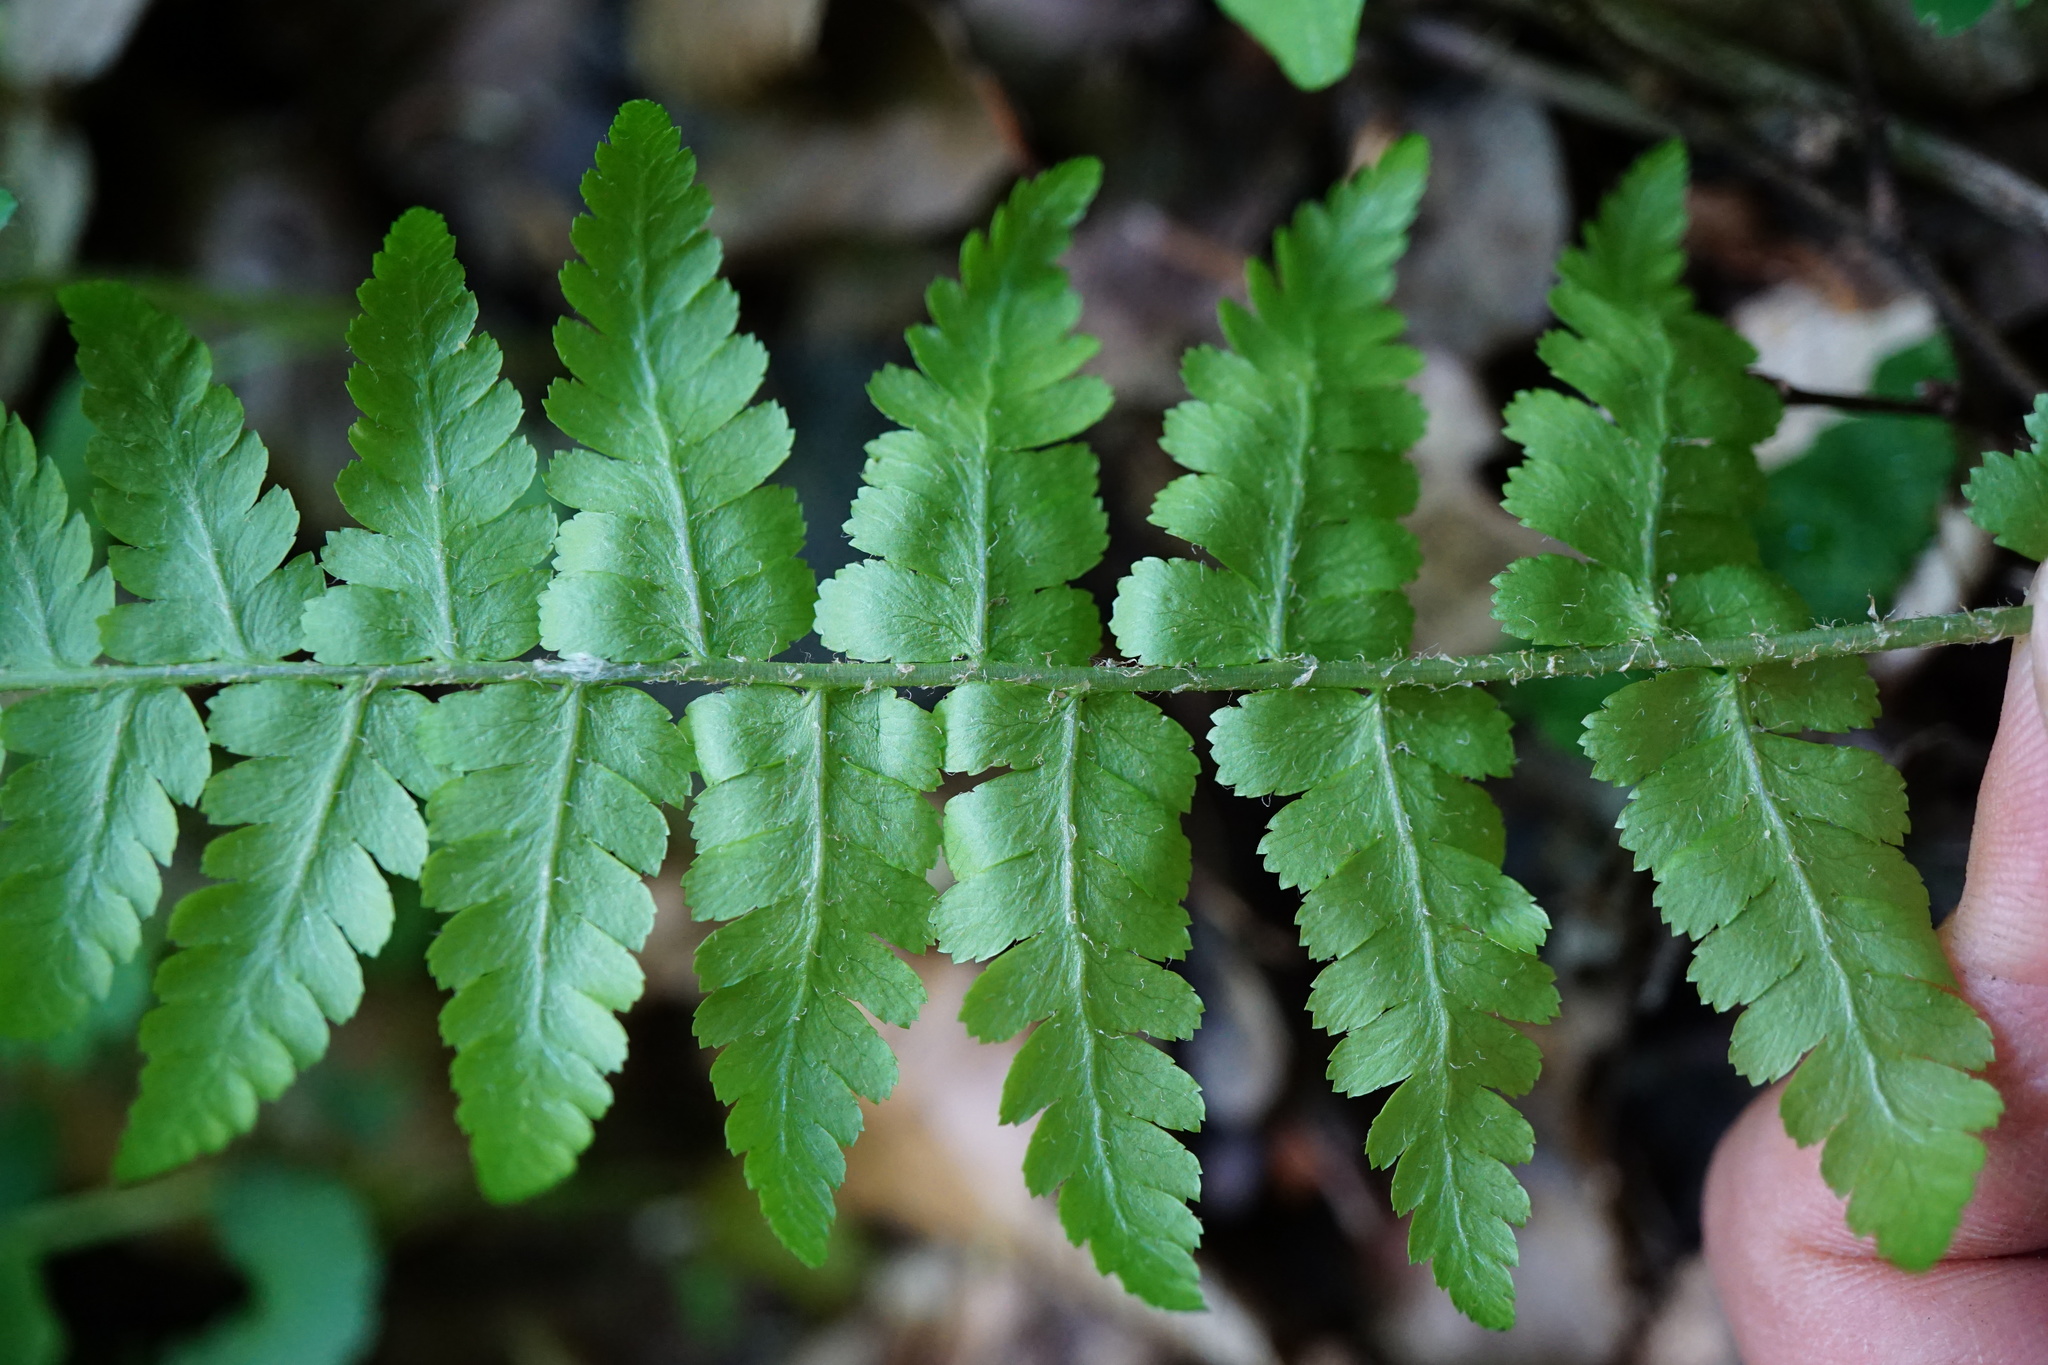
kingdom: Plantae
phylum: Tracheophyta
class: Polypodiopsida
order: Polypodiales
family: Dryopteridaceae
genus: Dryopteris
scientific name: Dryopteris filix-mas
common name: Male fern
